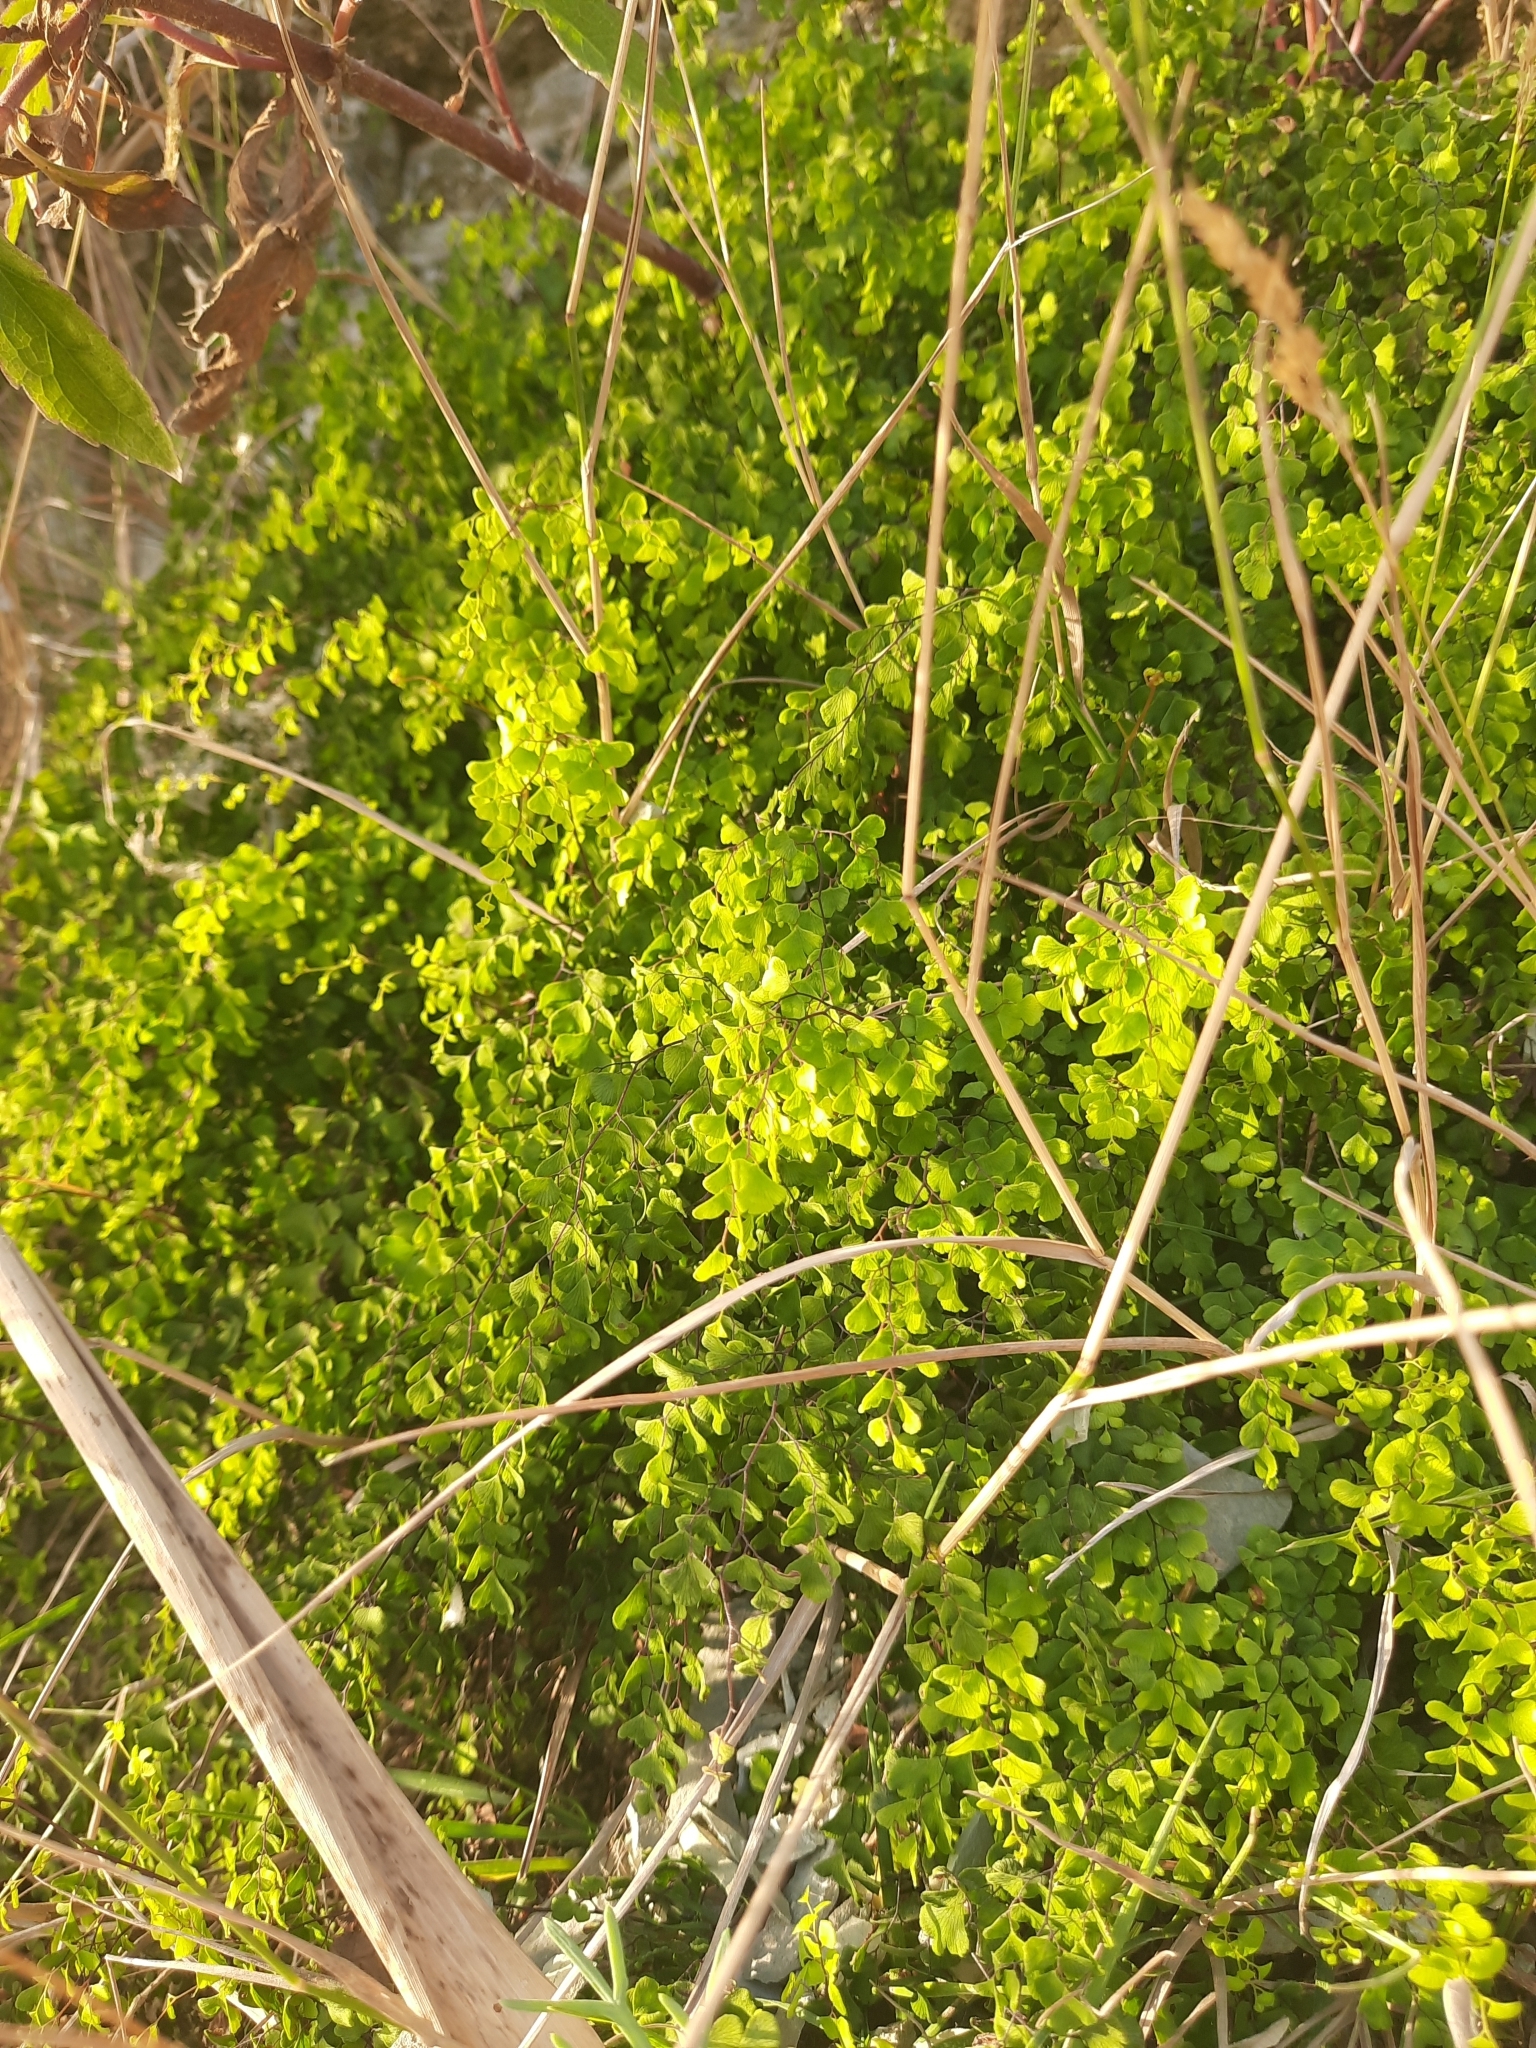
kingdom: Plantae
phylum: Tracheophyta
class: Polypodiopsida
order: Polypodiales
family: Pteridaceae
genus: Adiantum
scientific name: Adiantum capillus-veneris
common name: Maidenhair fern
